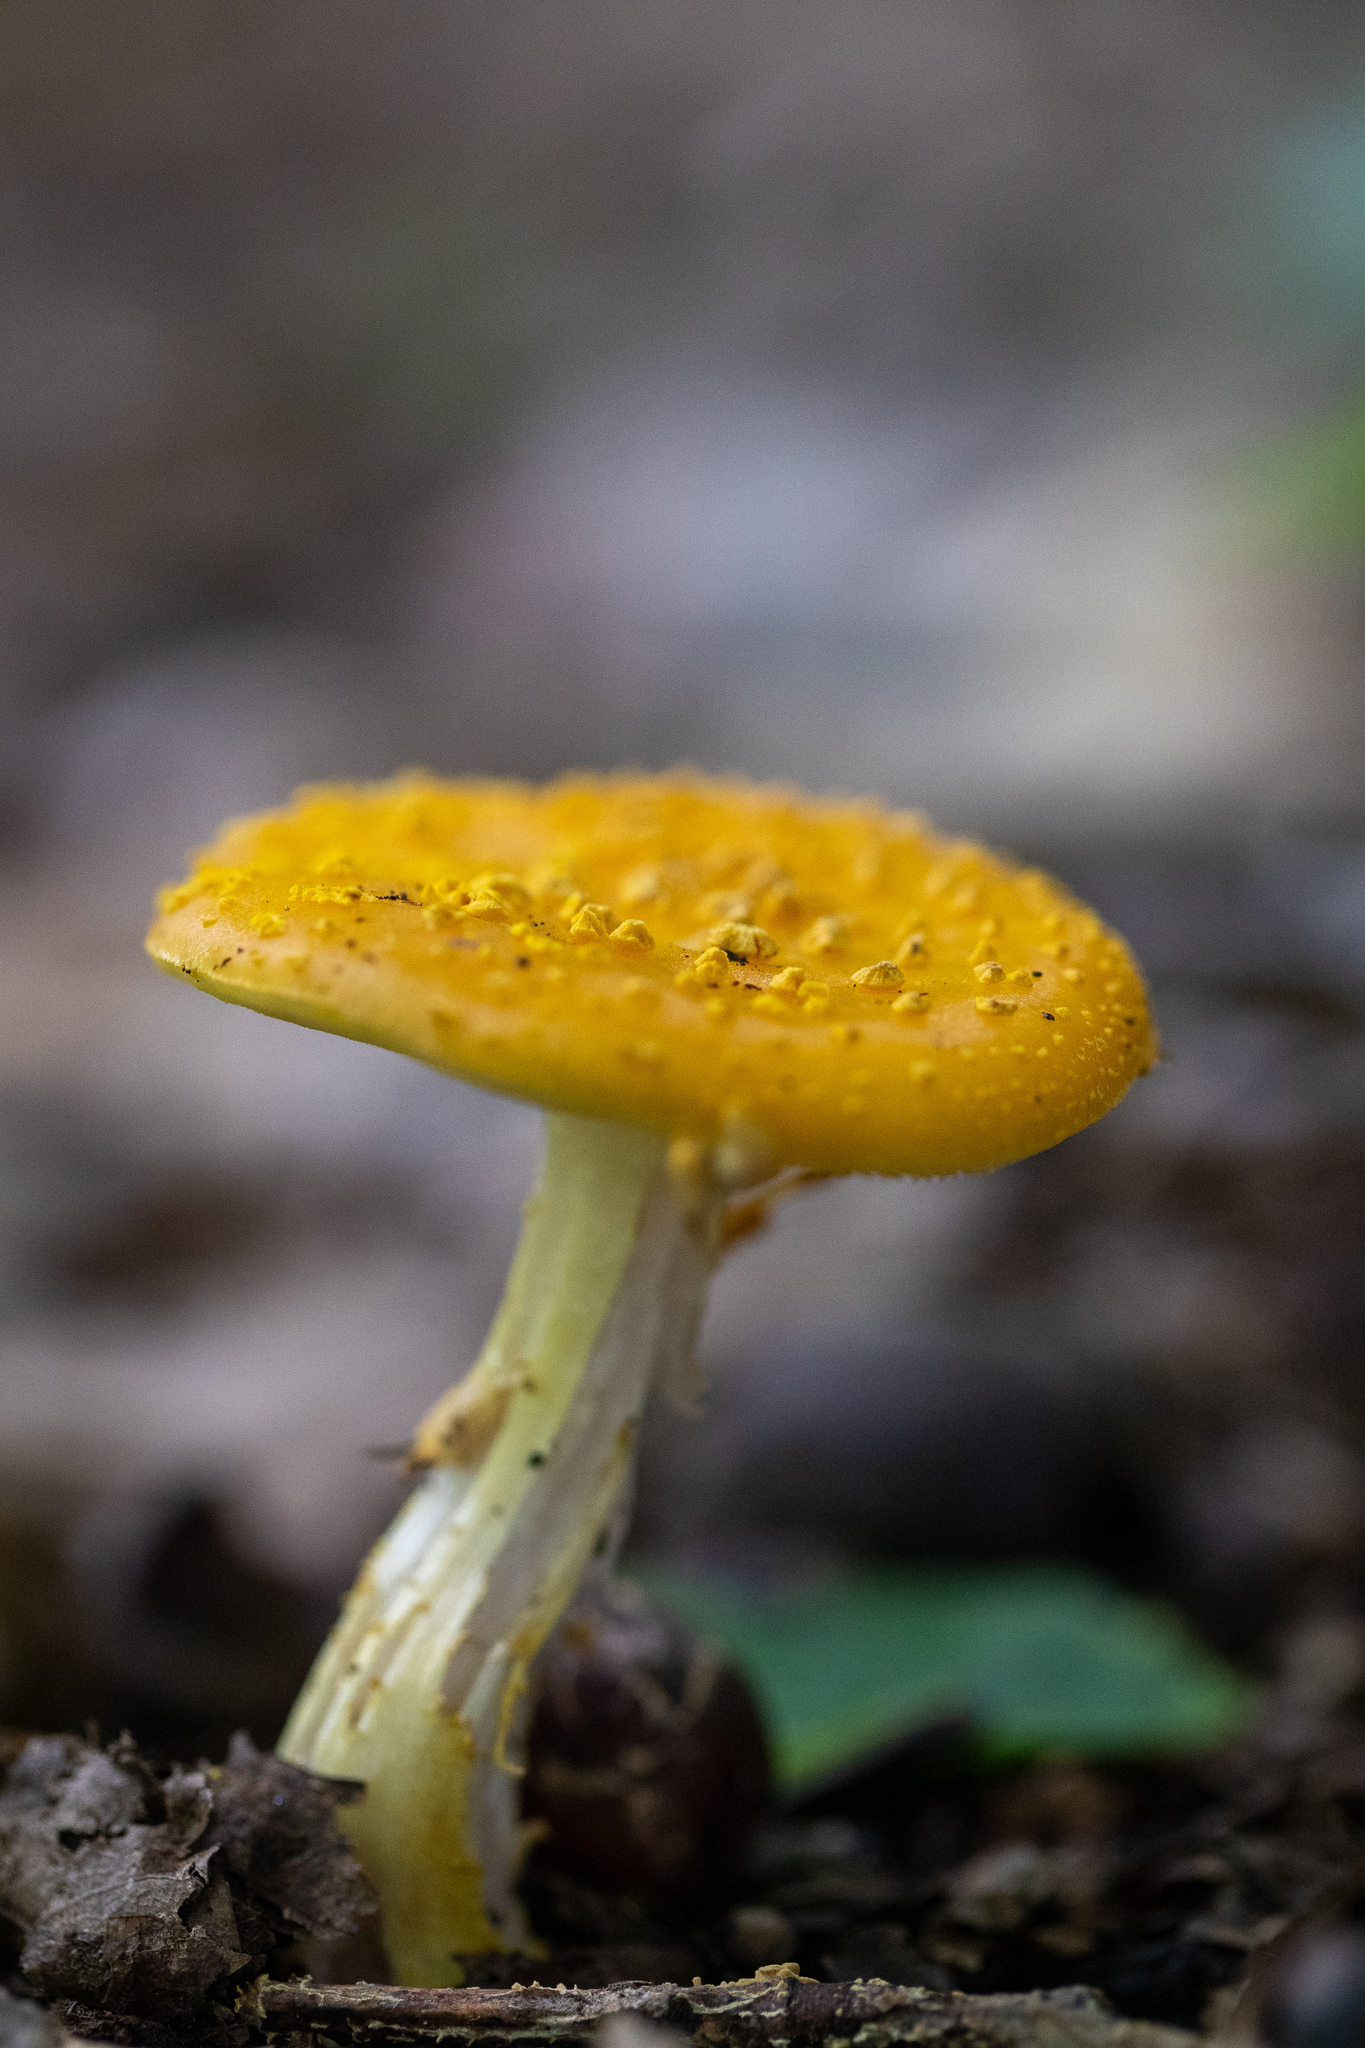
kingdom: Fungi
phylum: Basidiomycota
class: Agaricomycetes
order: Agaricales
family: Amanitaceae
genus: Amanita
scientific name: Amanita flavoconia
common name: Yellow patches
